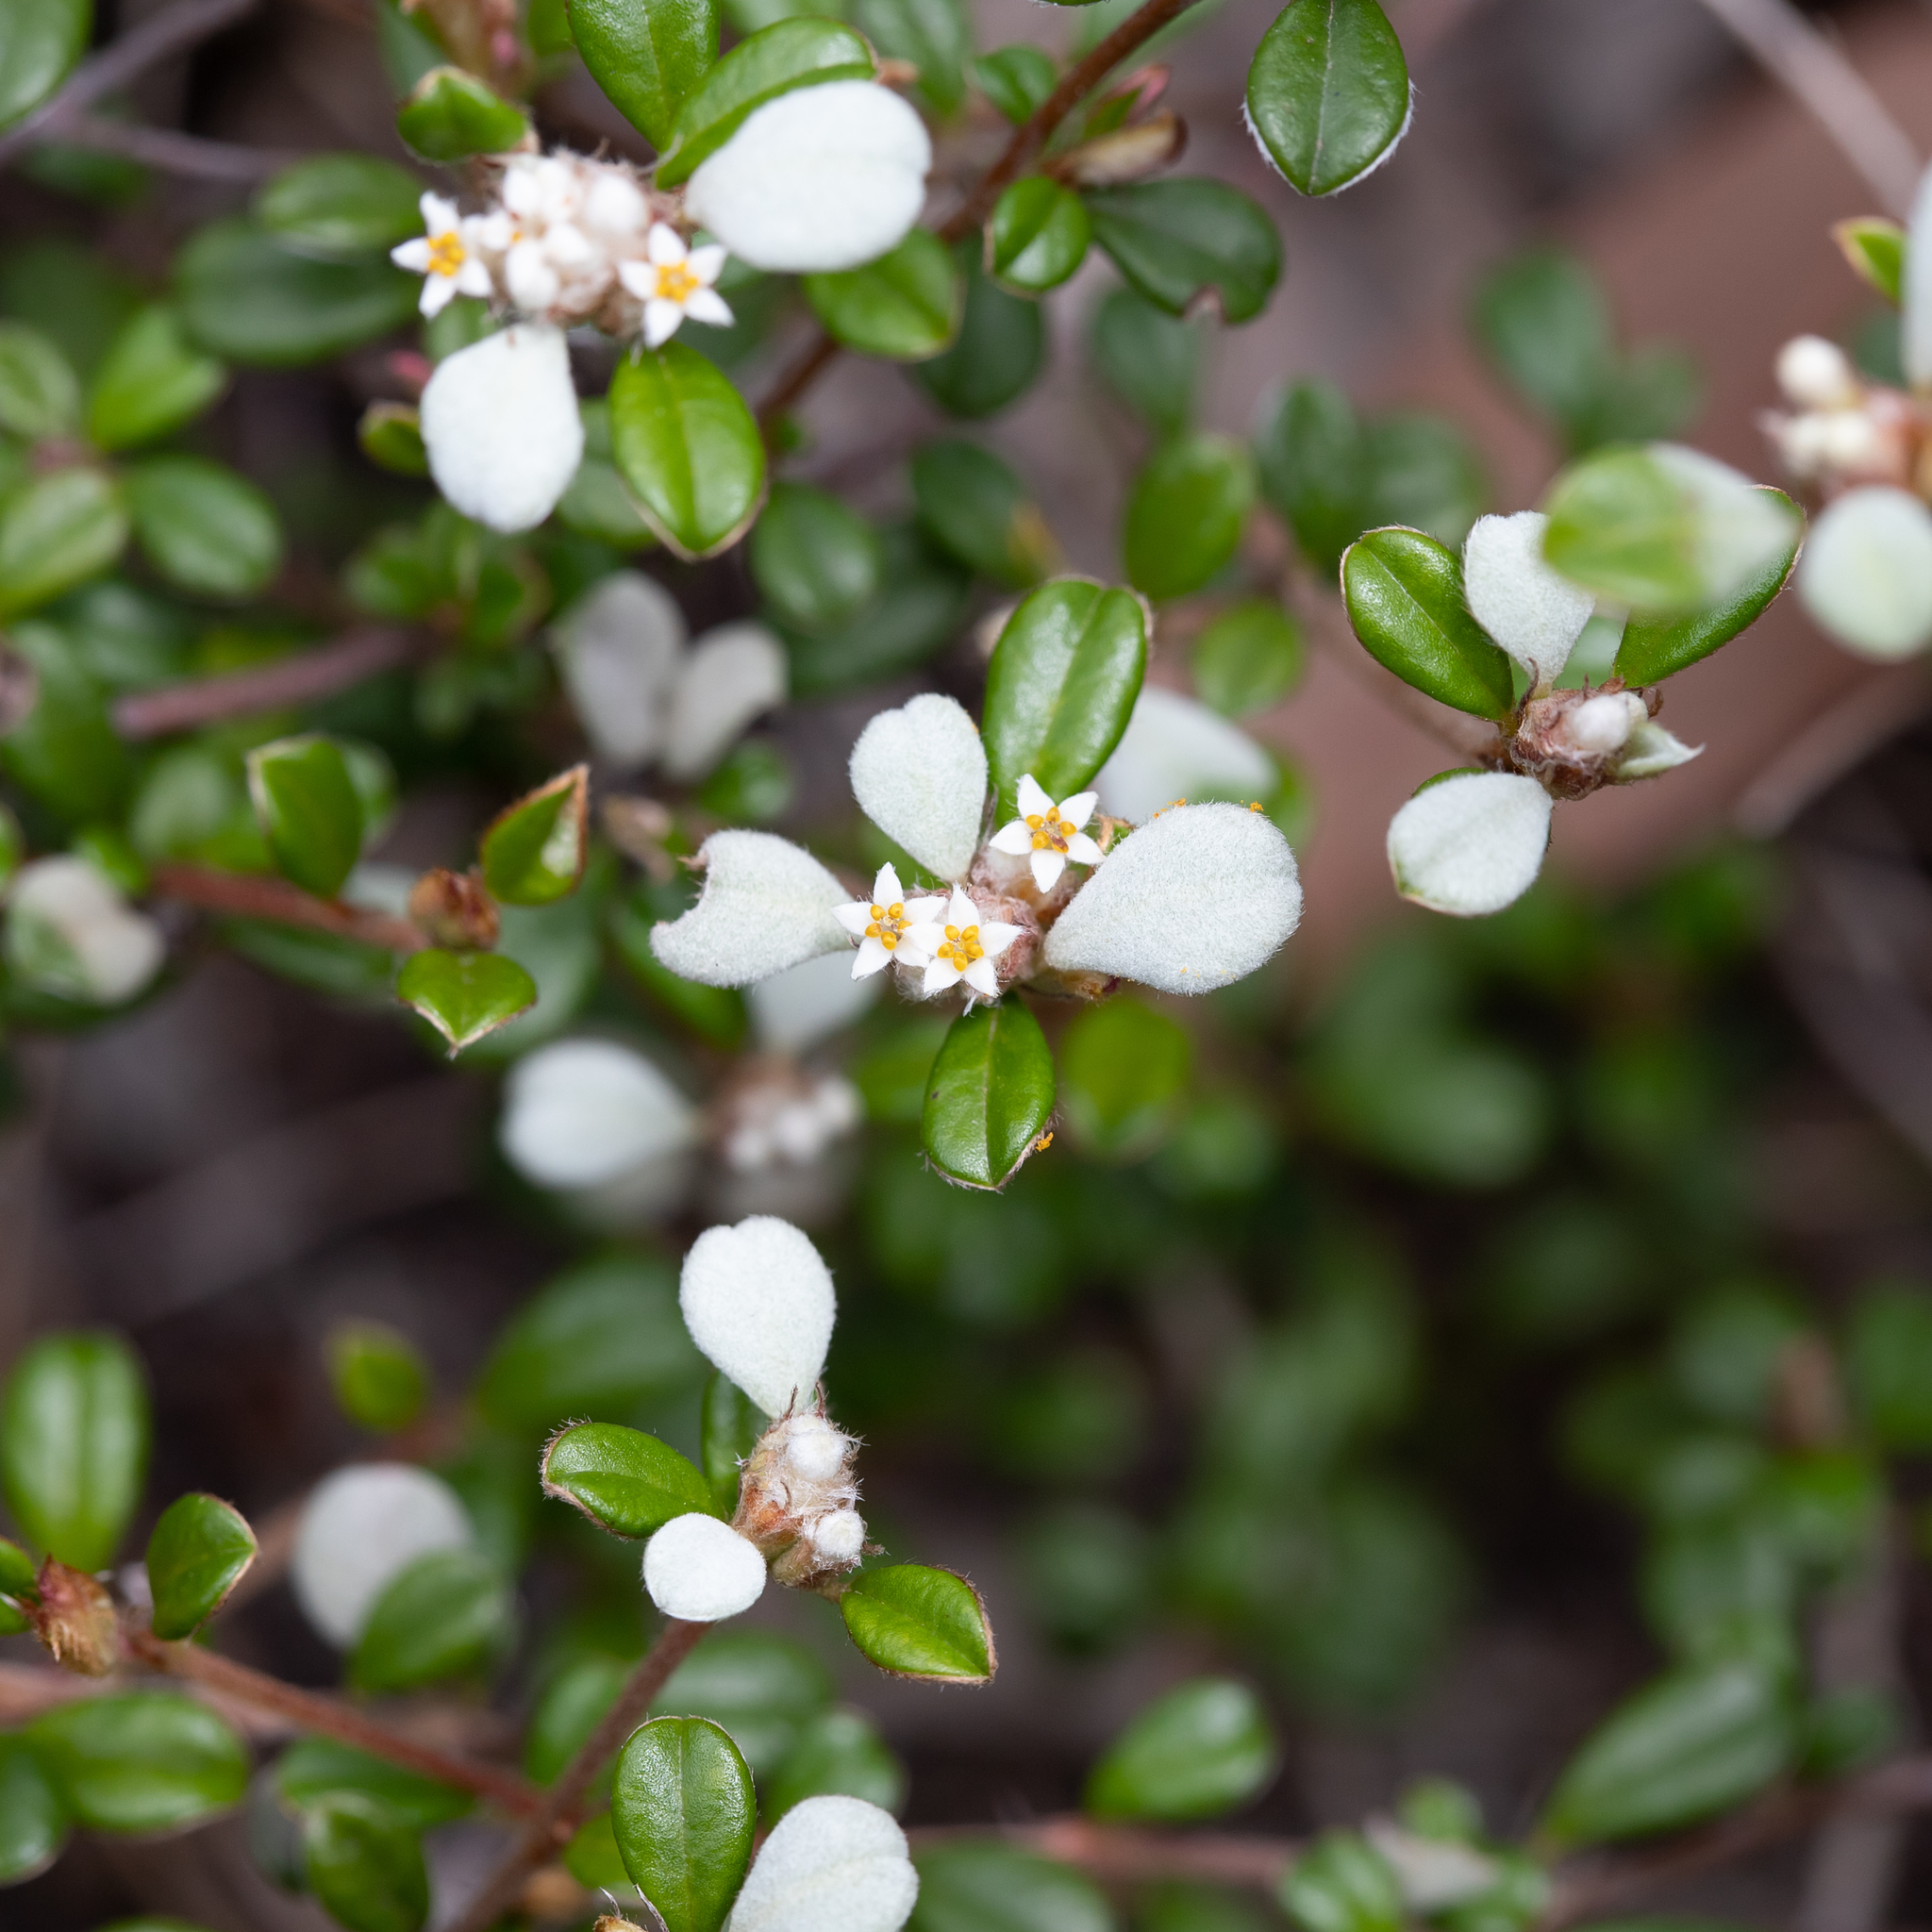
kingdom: Plantae
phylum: Tracheophyta
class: Magnoliopsida
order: Rosales
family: Rhamnaceae
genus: Cryptandra
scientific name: Cryptandra leucophracta
